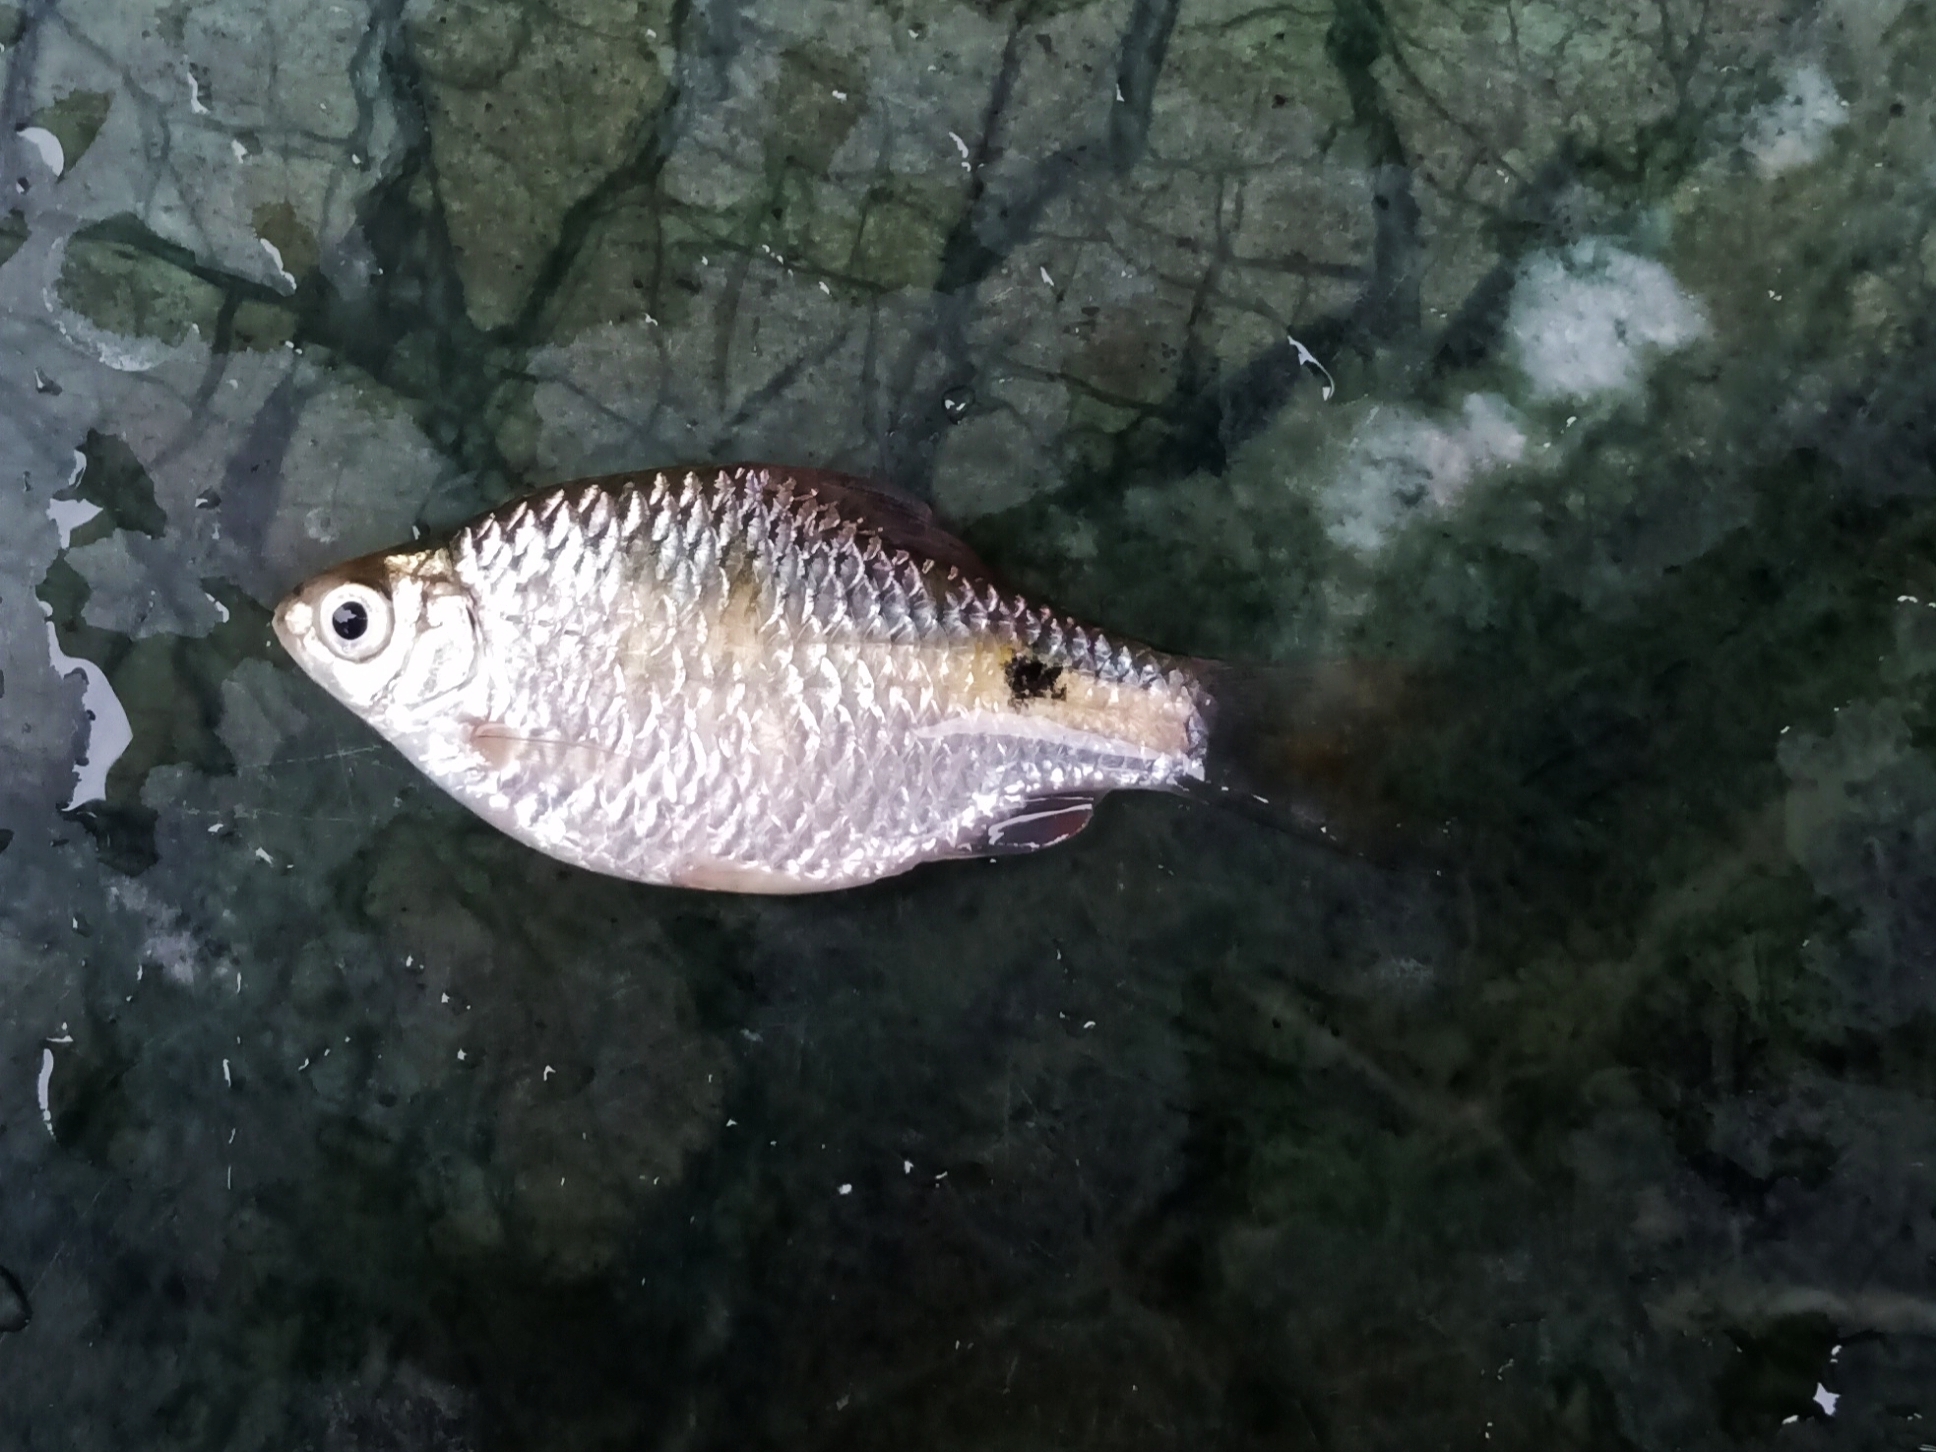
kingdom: Animalia
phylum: Chordata
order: Cypriniformes
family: Cyprinidae
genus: Puntius
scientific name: Puntius terio
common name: Onespot barb
